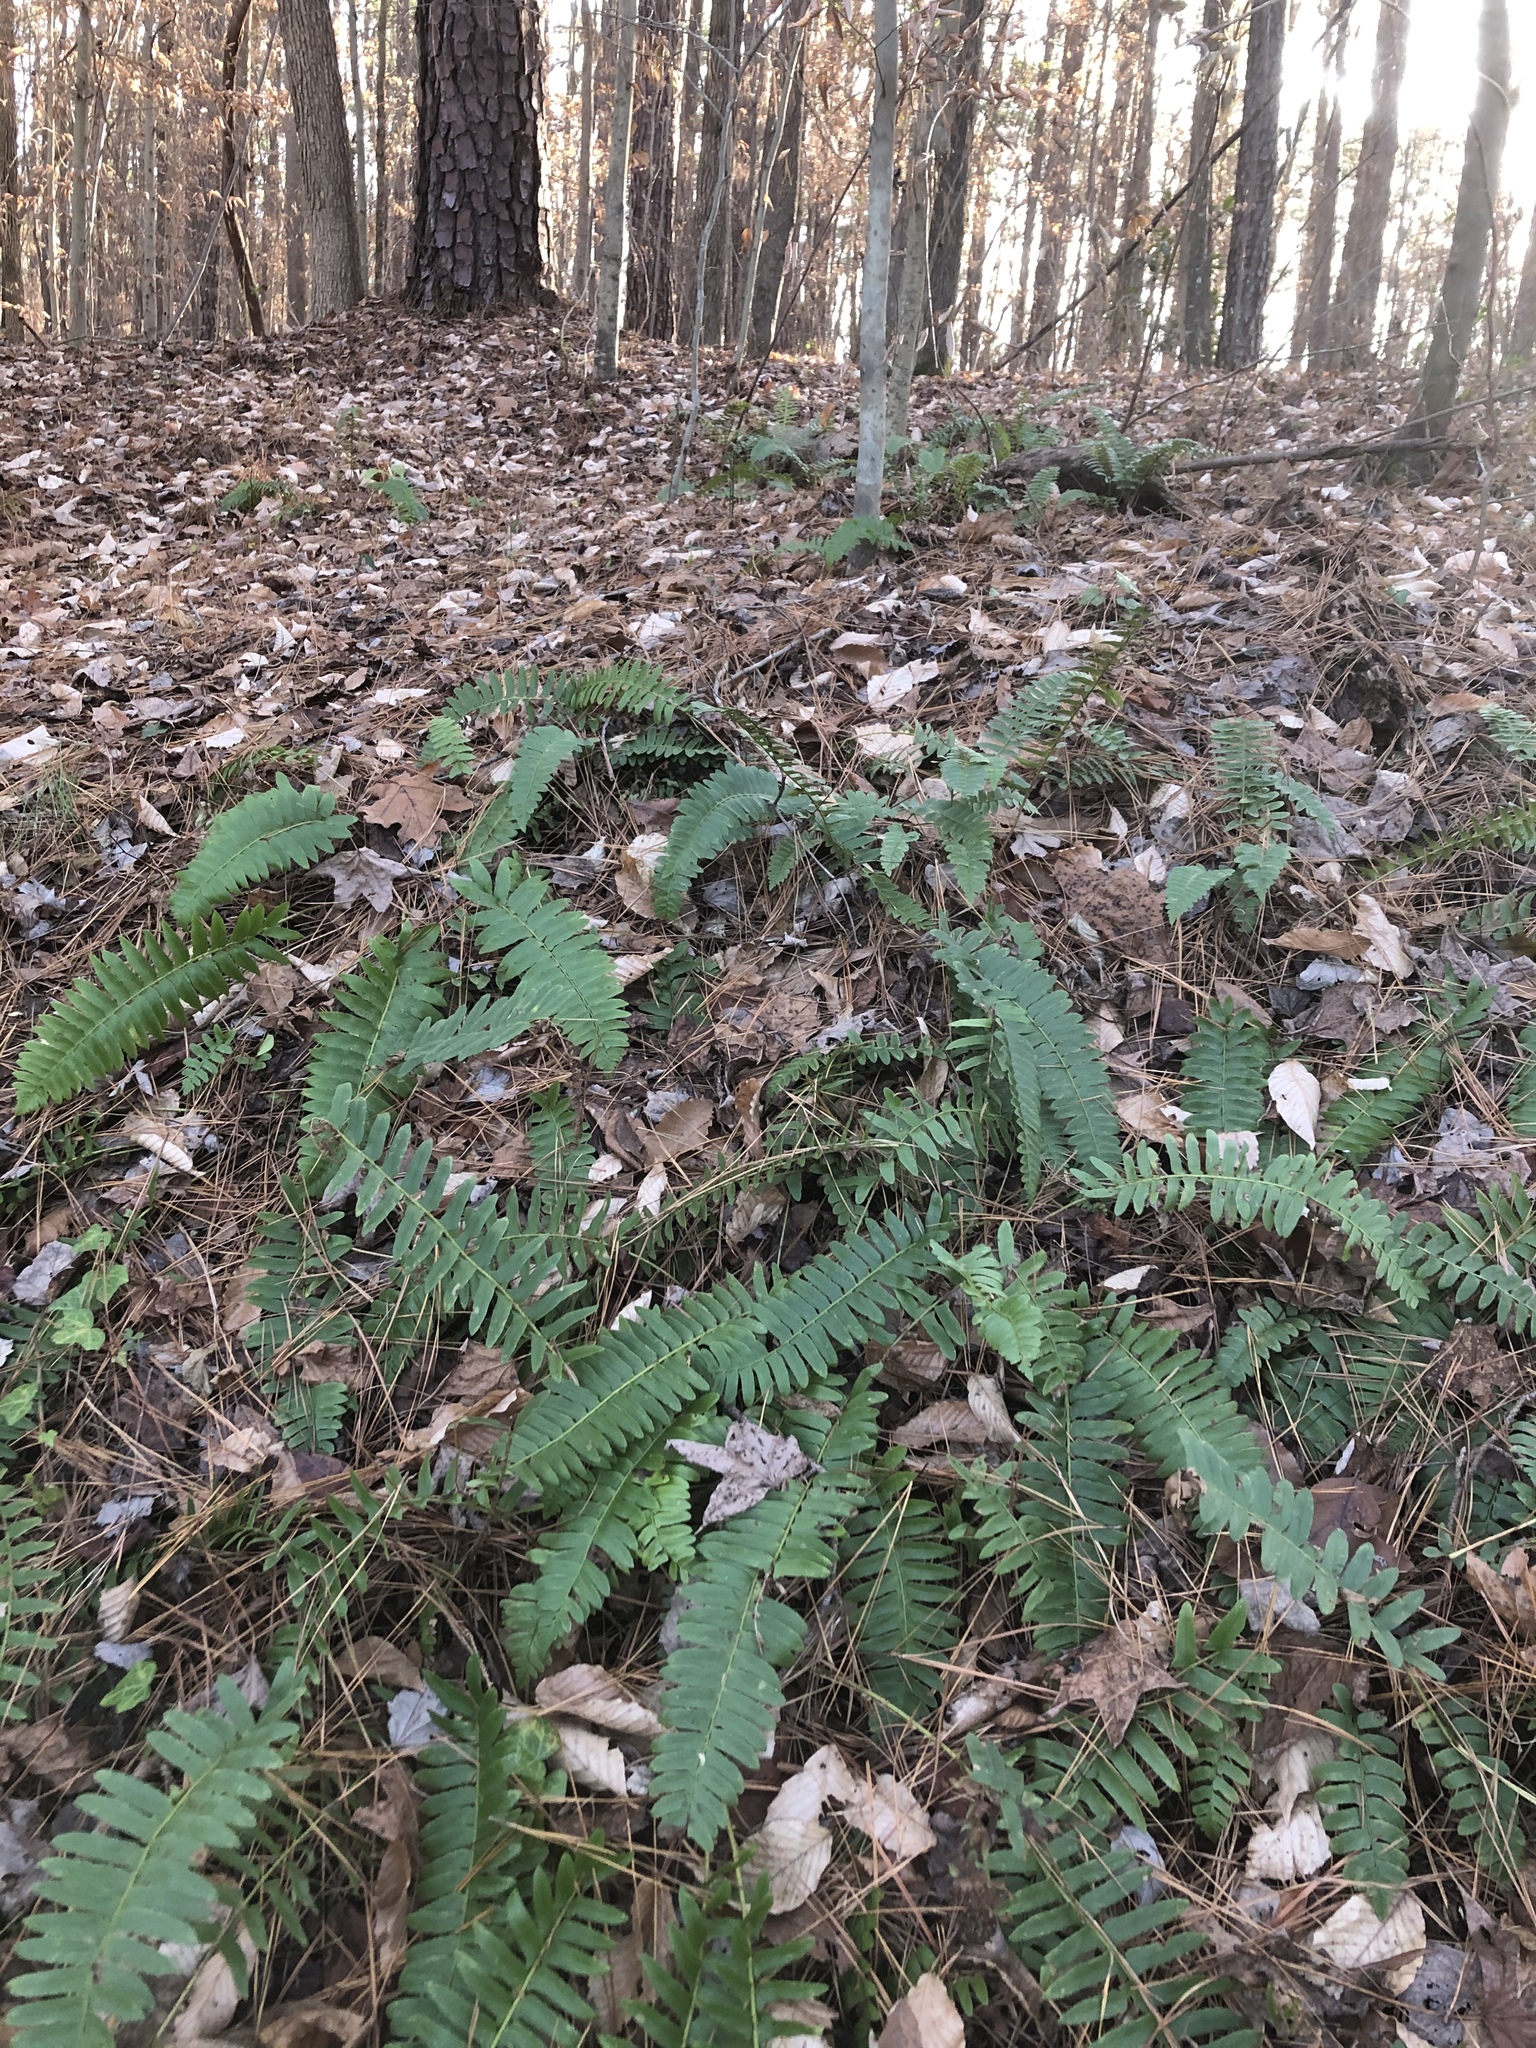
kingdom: Plantae
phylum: Tracheophyta
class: Polypodiopsida
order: Polypodiales
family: Dryopteridaceae
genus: Polystichum
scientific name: Polystichum acrostichoides
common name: Christmas fern
